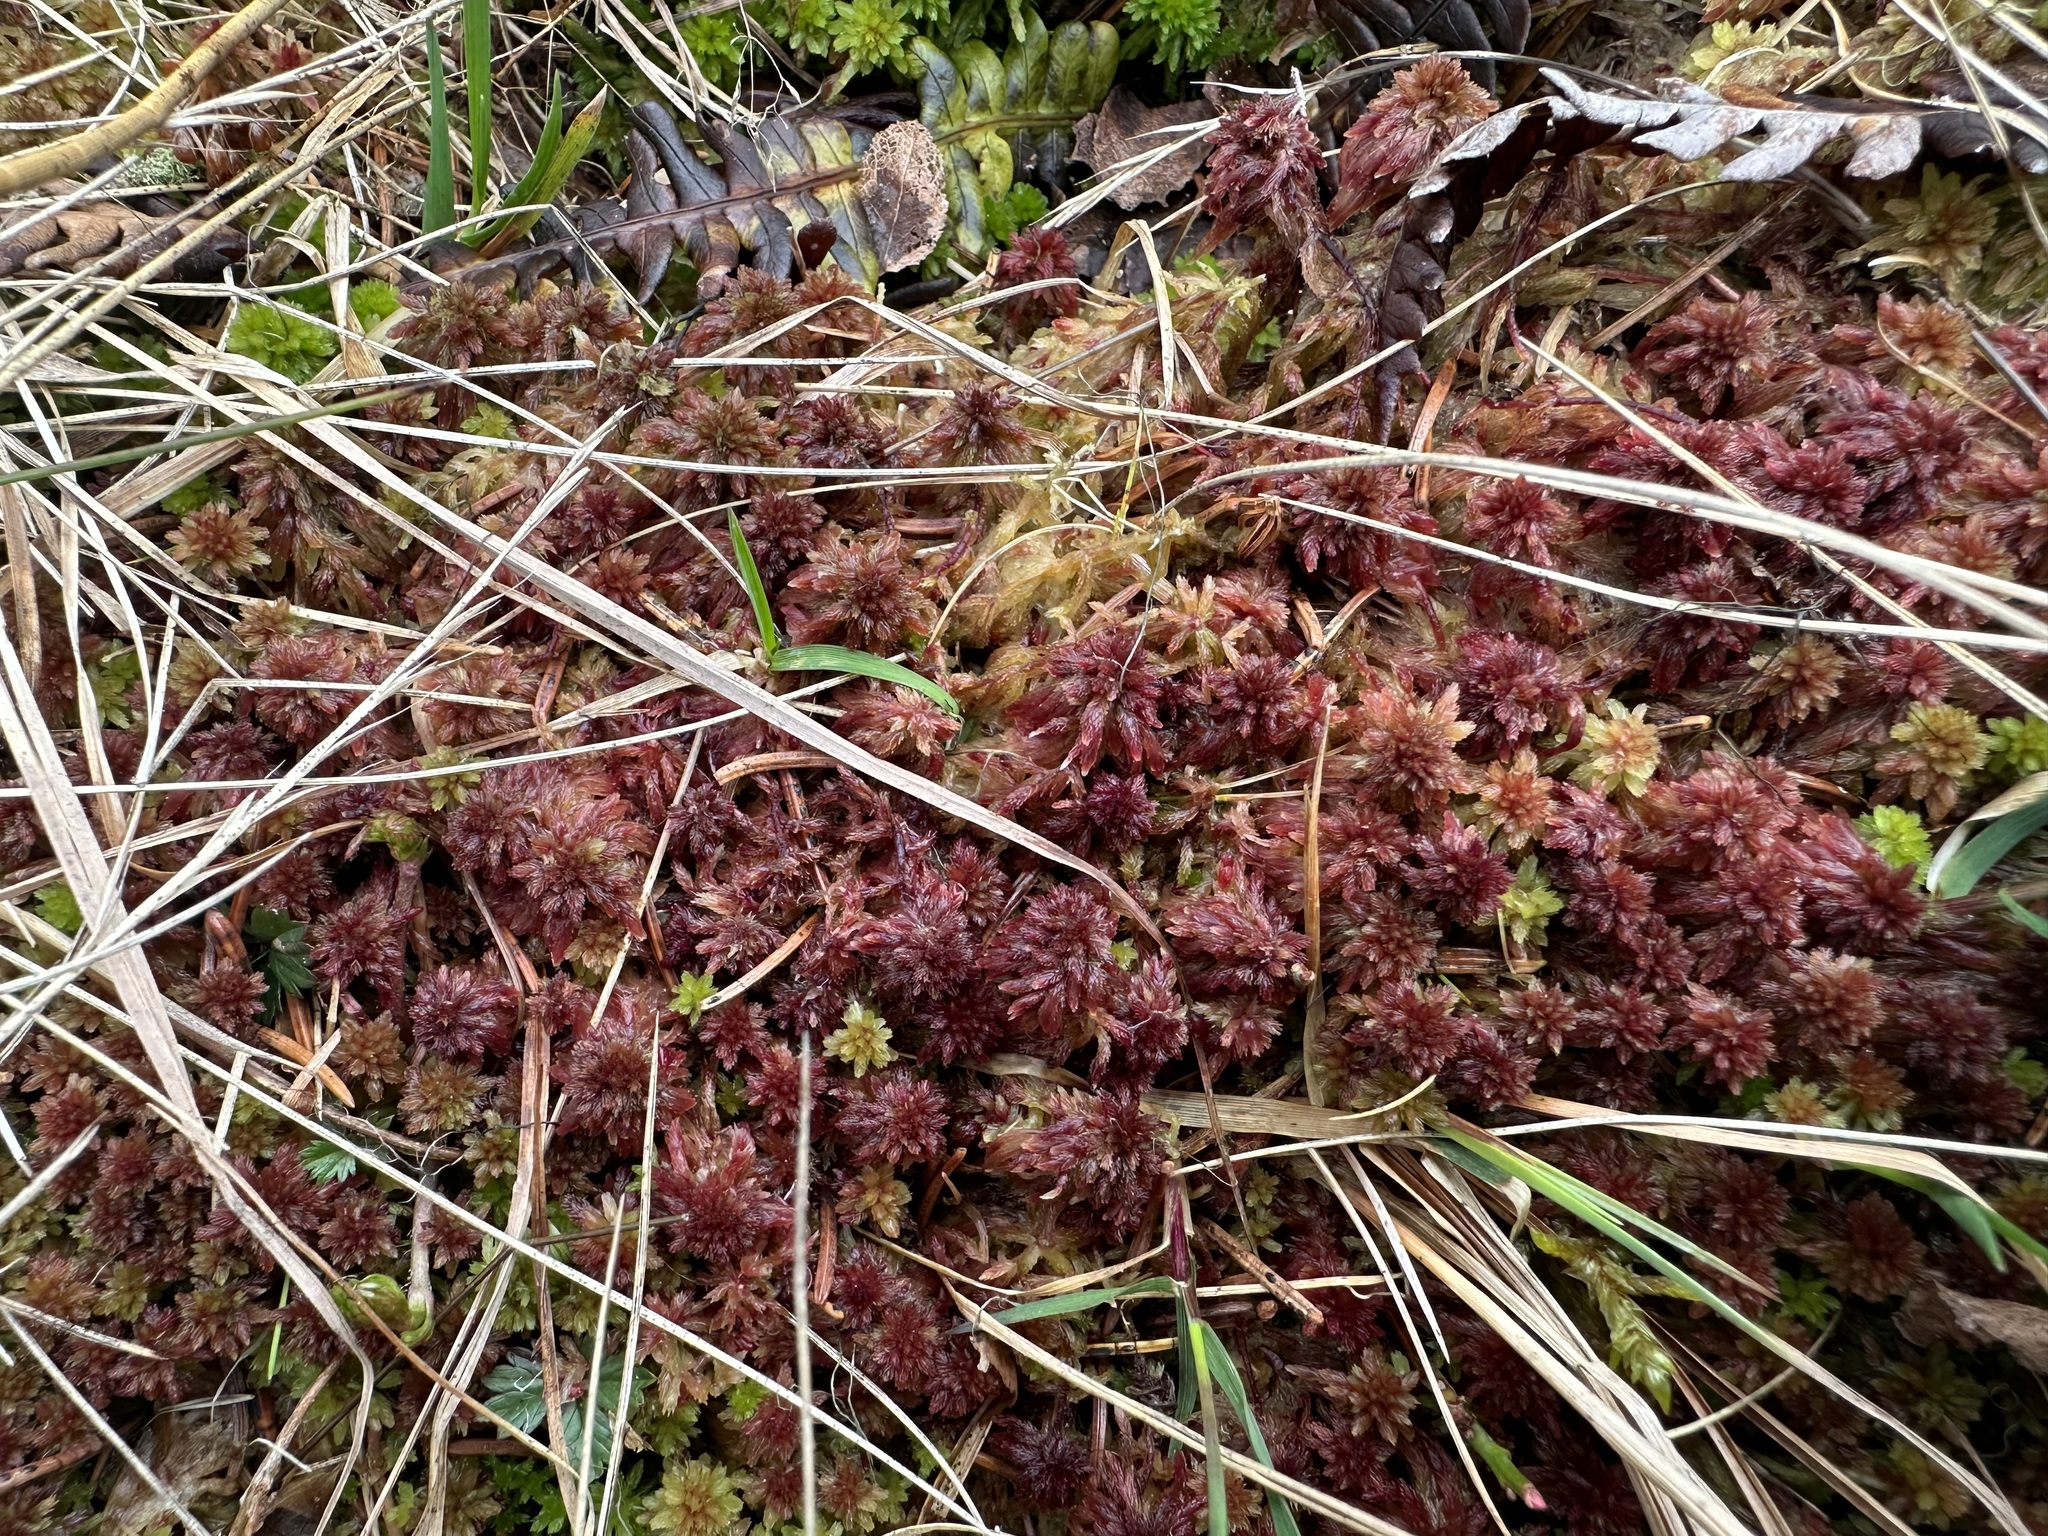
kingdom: Plantae
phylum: Bryophyta
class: Sphagnopsida
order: Sphagnales
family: Sphagnaceae
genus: Sphagnum
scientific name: Sphagnum capillifolium
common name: Small red peat moss
